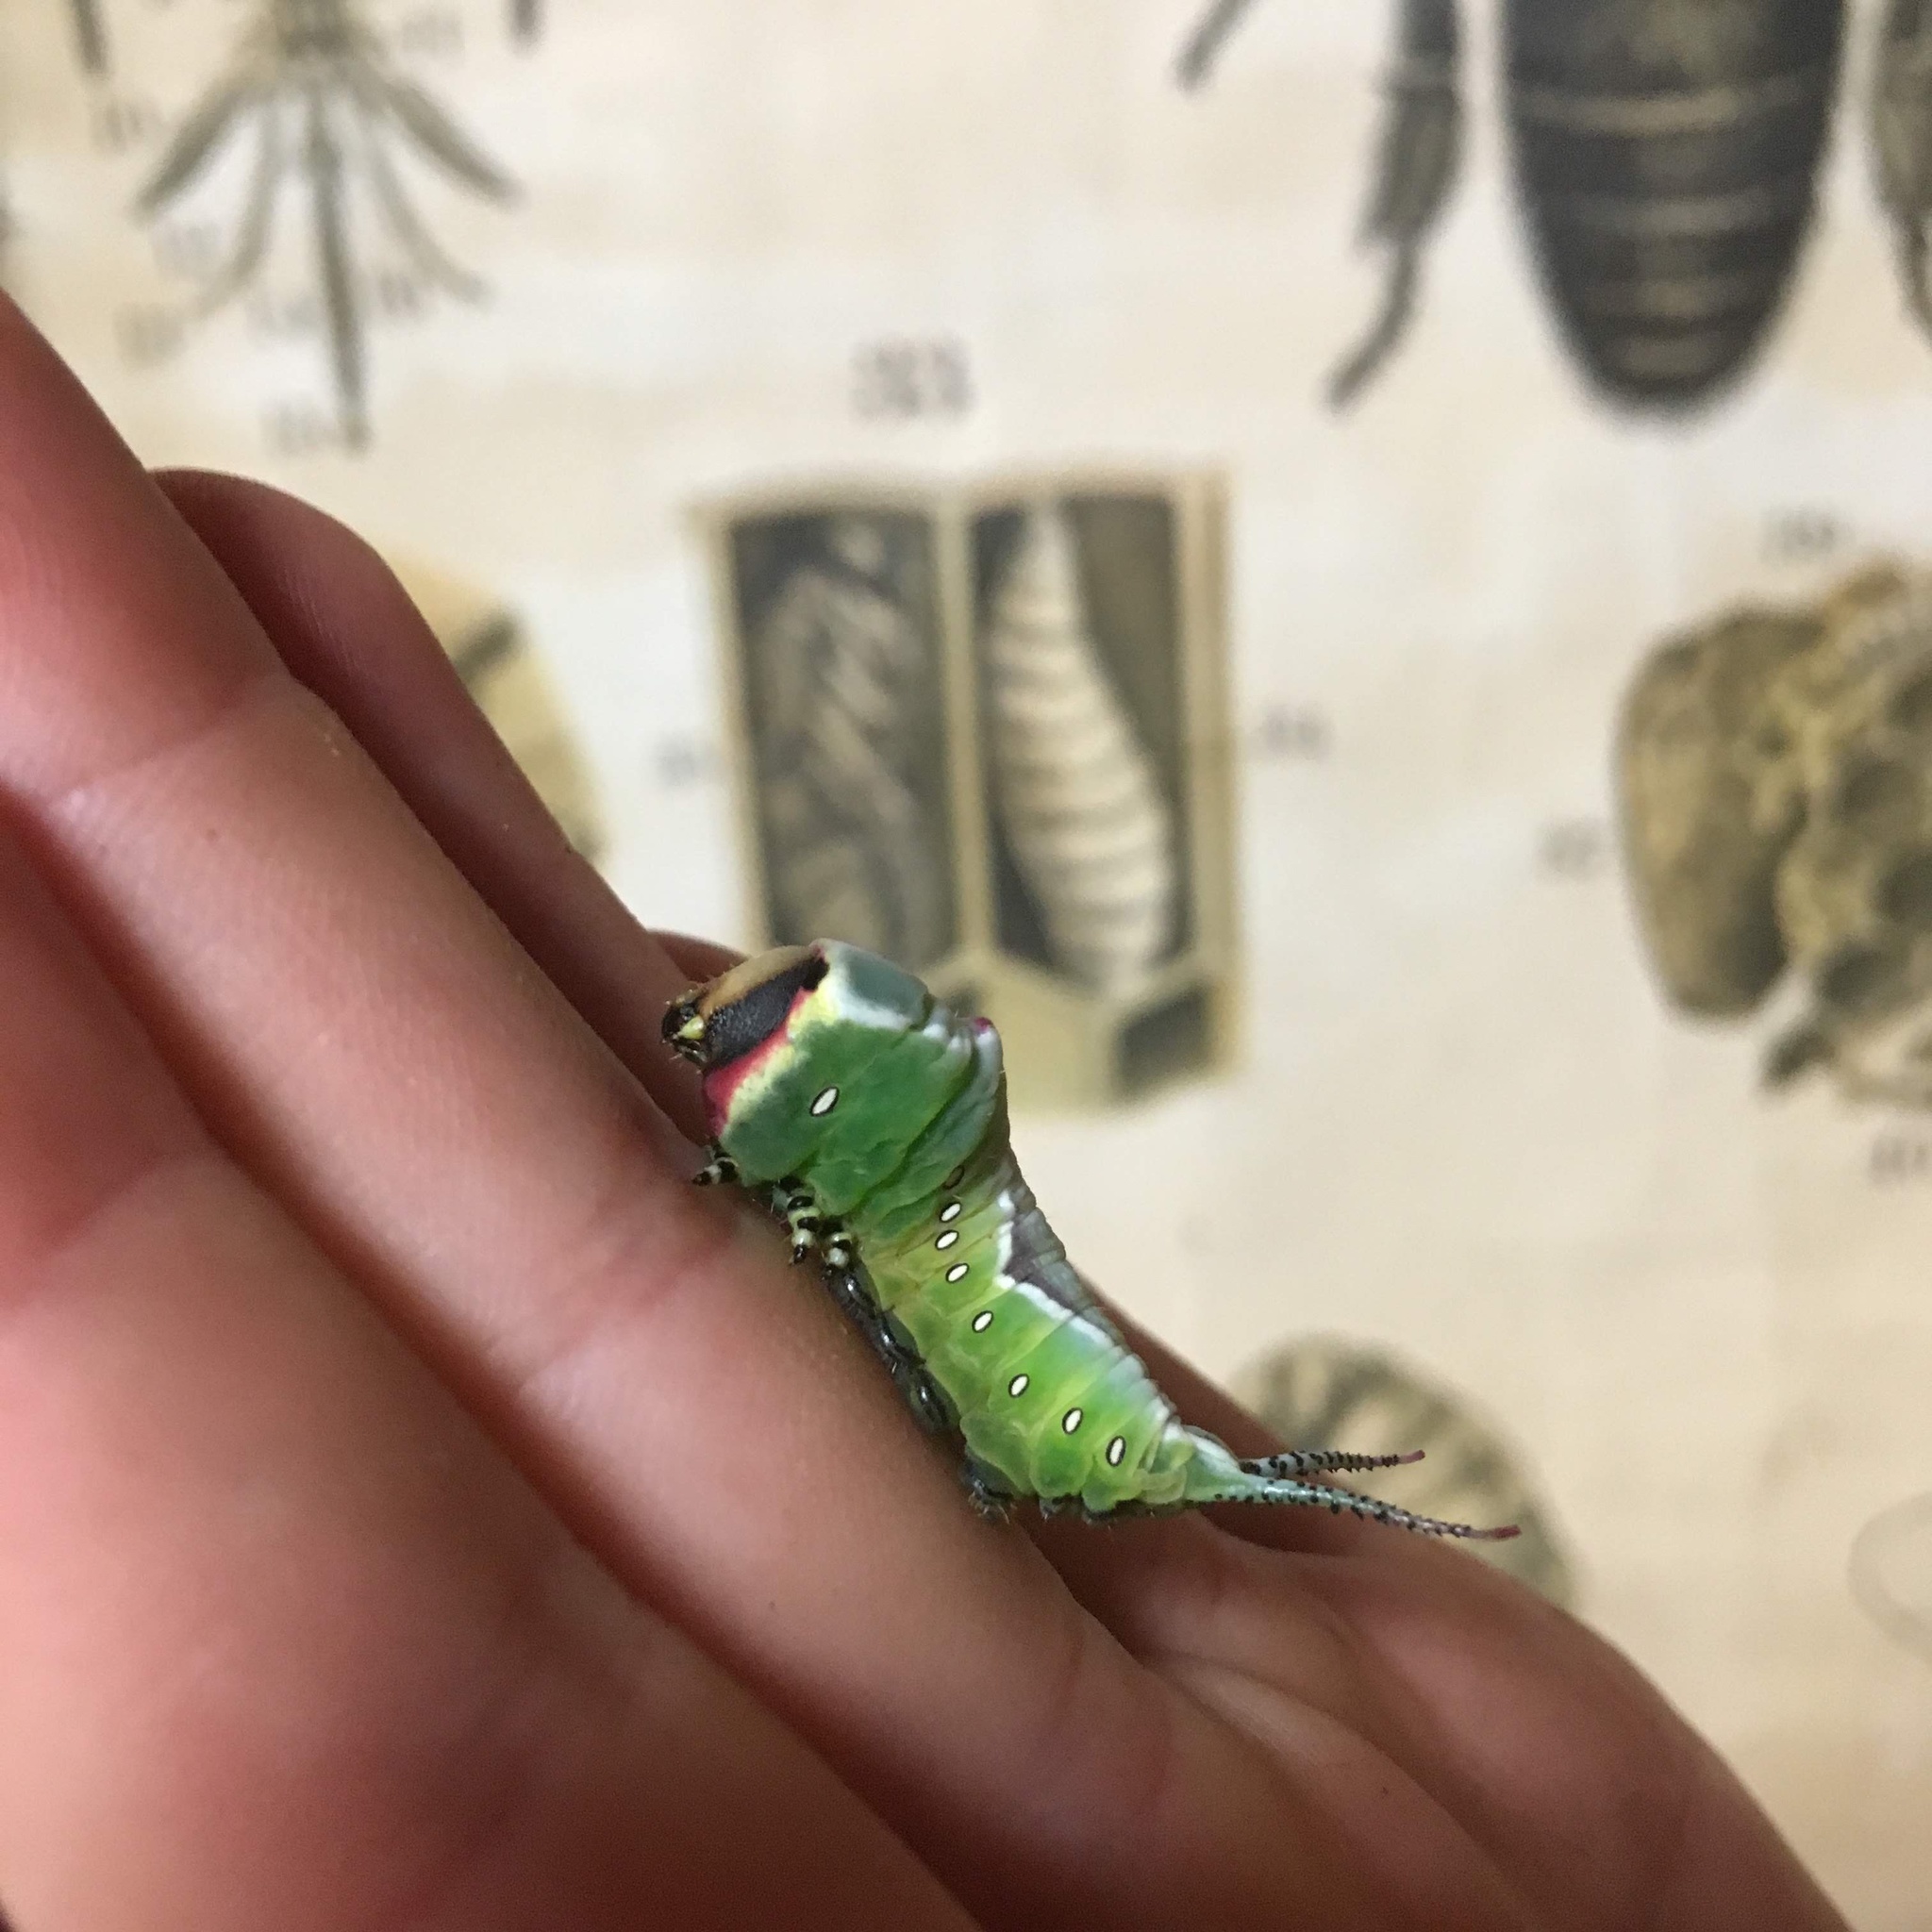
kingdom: Animalia
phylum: Arthropoda
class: Insecta
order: Lepidoptera
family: Notodontidae
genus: Cerura
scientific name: Cerura vinula
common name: Puss moth
